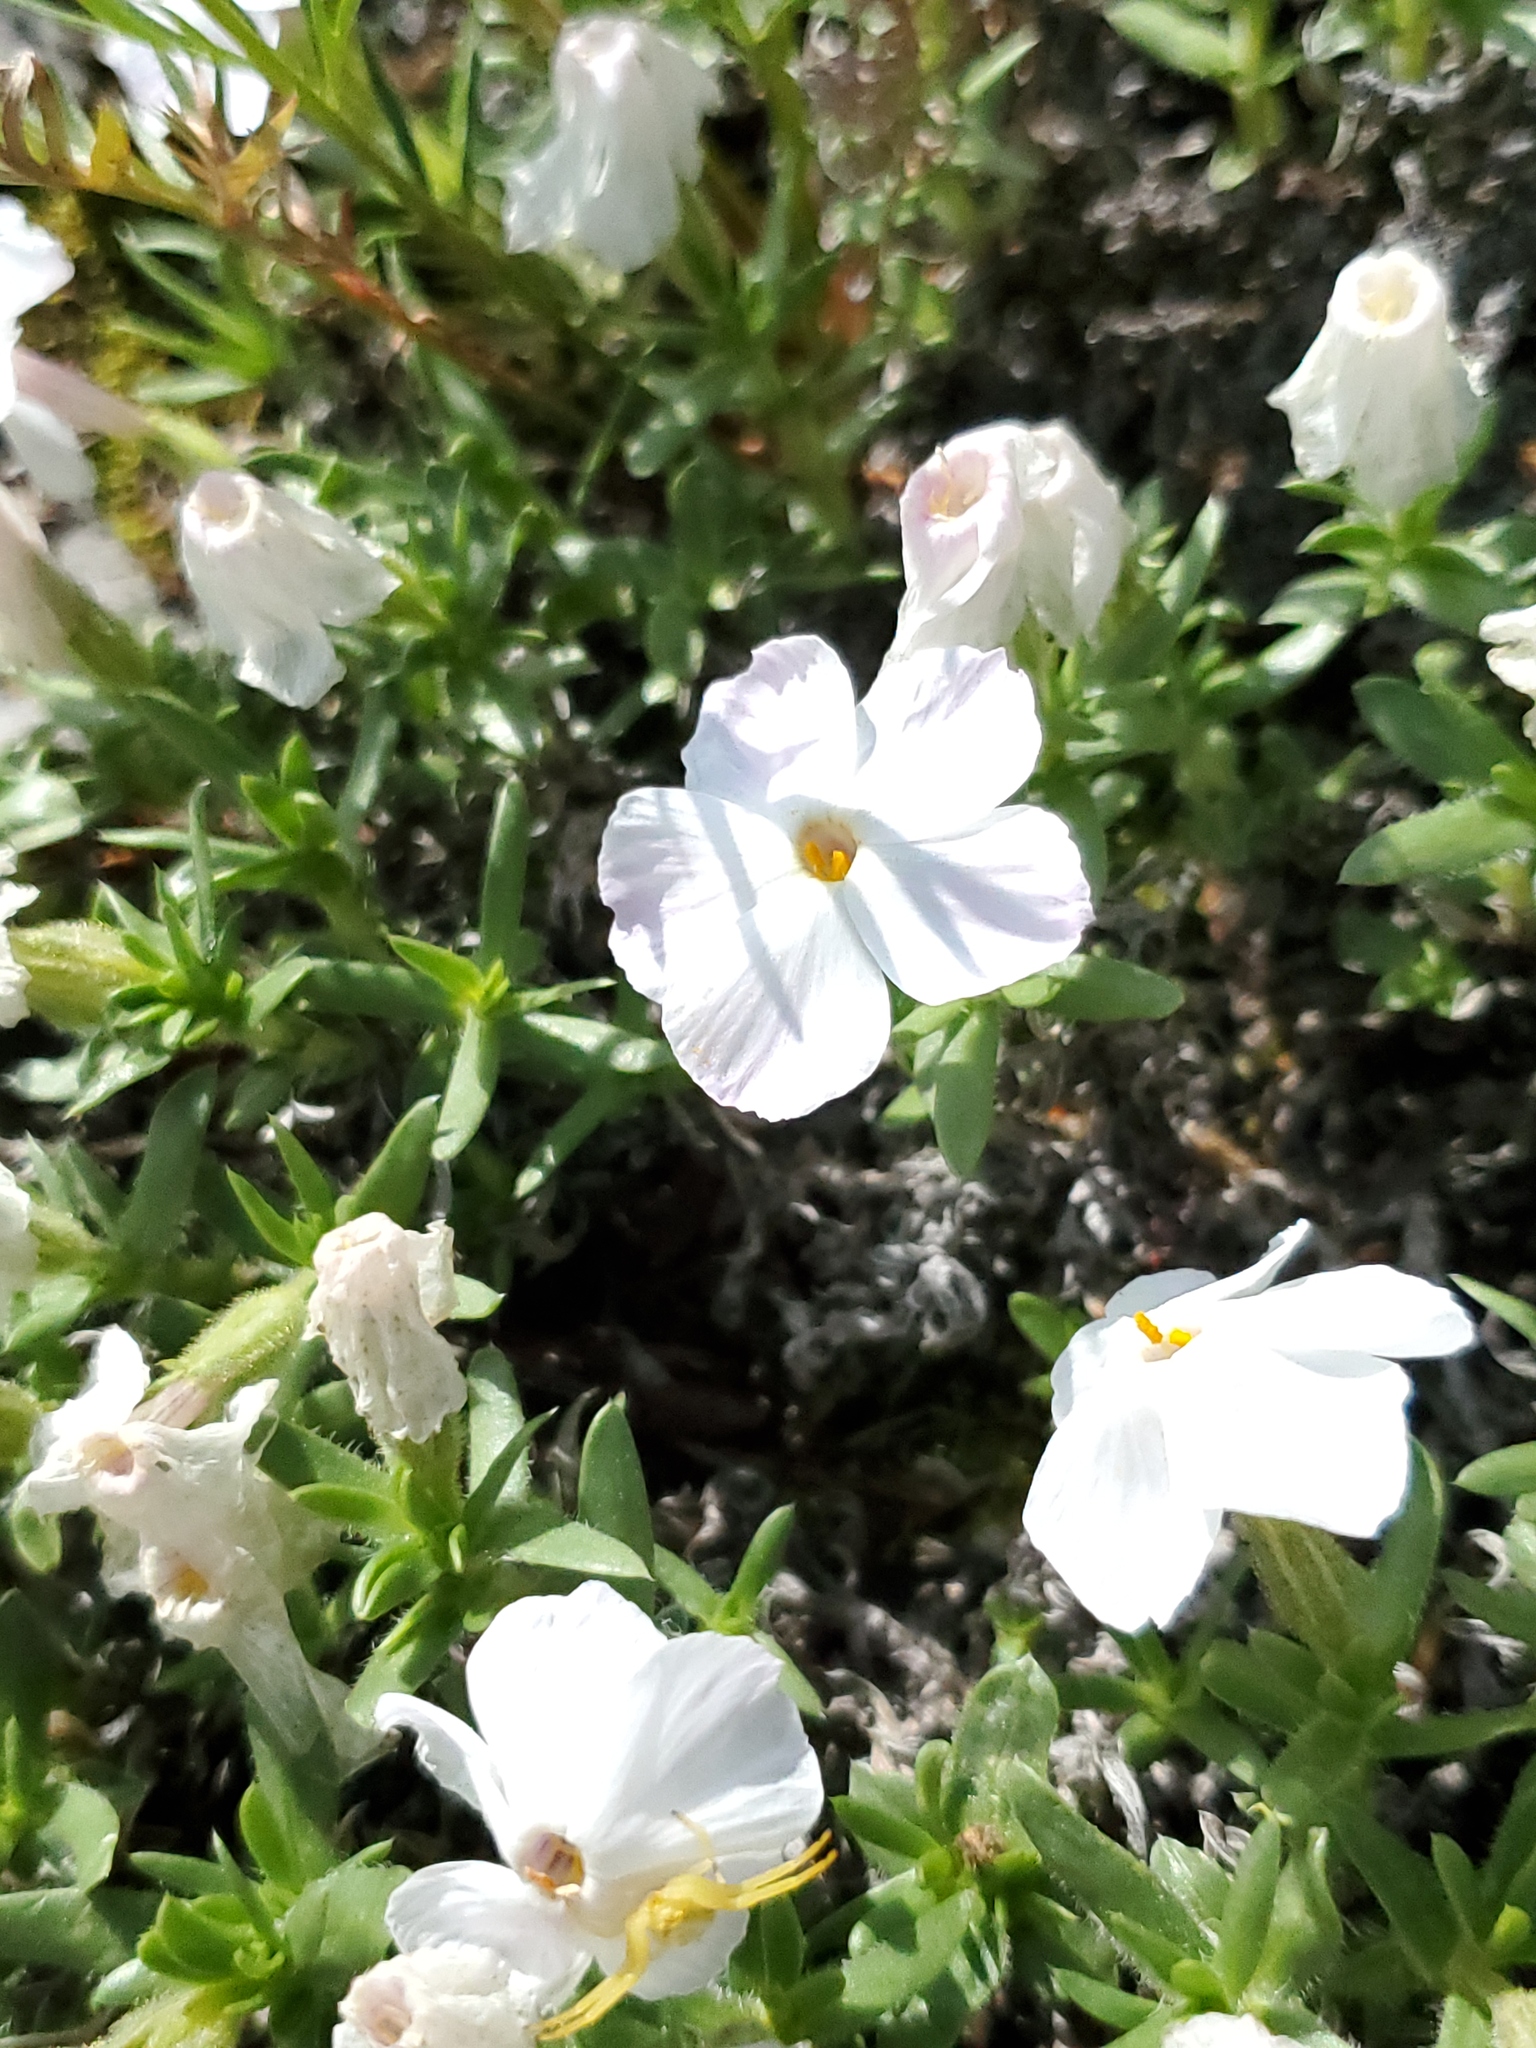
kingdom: Plantae
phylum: Tracheophyta
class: Magnoliopsida
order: Ericales
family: Polemoniaceae
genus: Phlox
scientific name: Phlox alyssifolia
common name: Blue phlox
